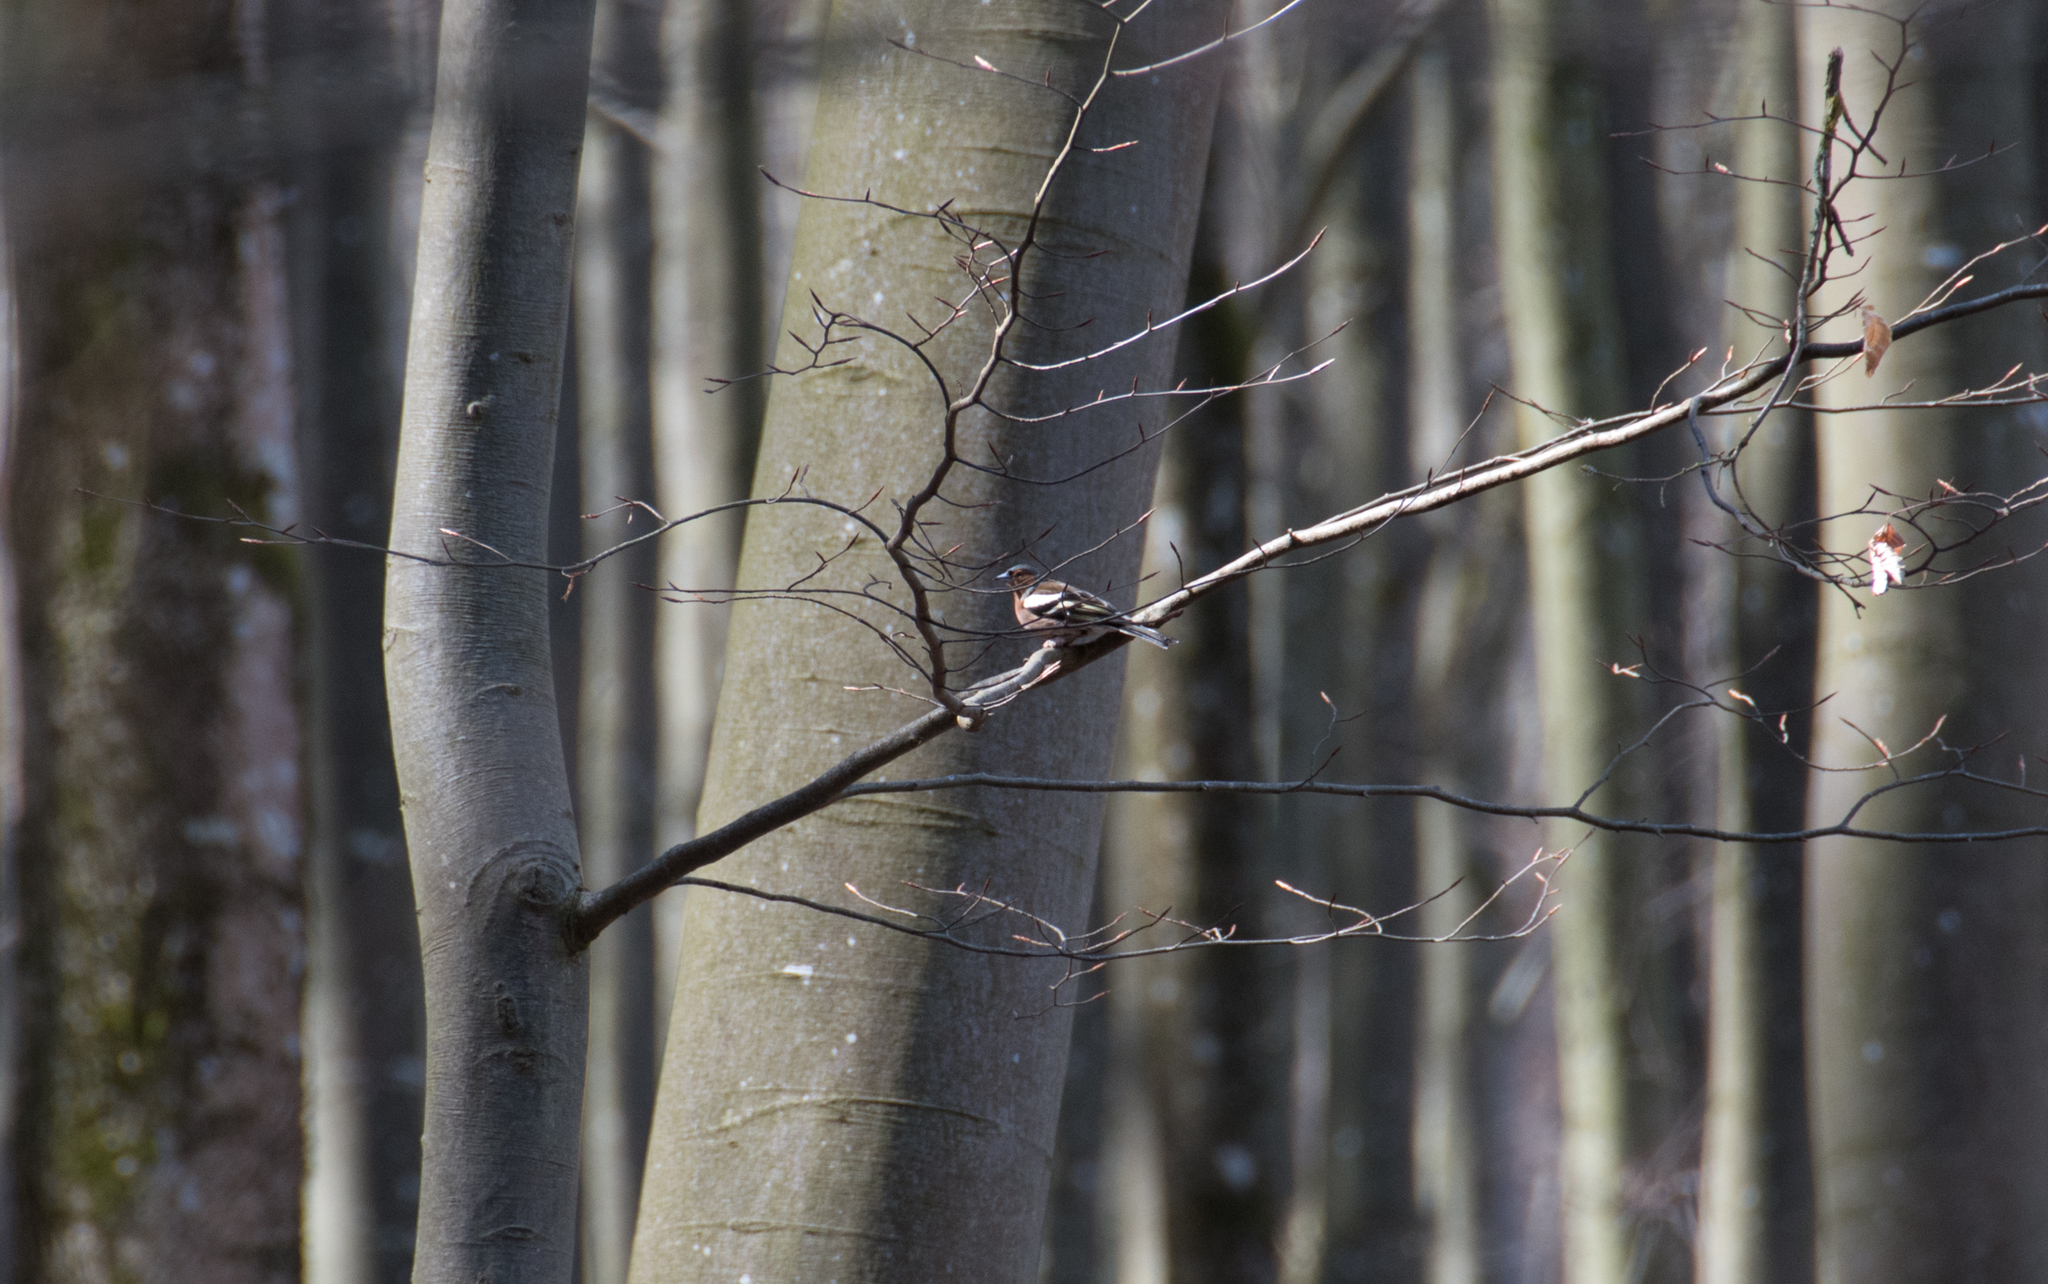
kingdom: Animalia
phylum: Chordata
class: Aves
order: Passeriformes
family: Fringillidae
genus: Fringilla
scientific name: Fringilla coelebs
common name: Common chaffinch
